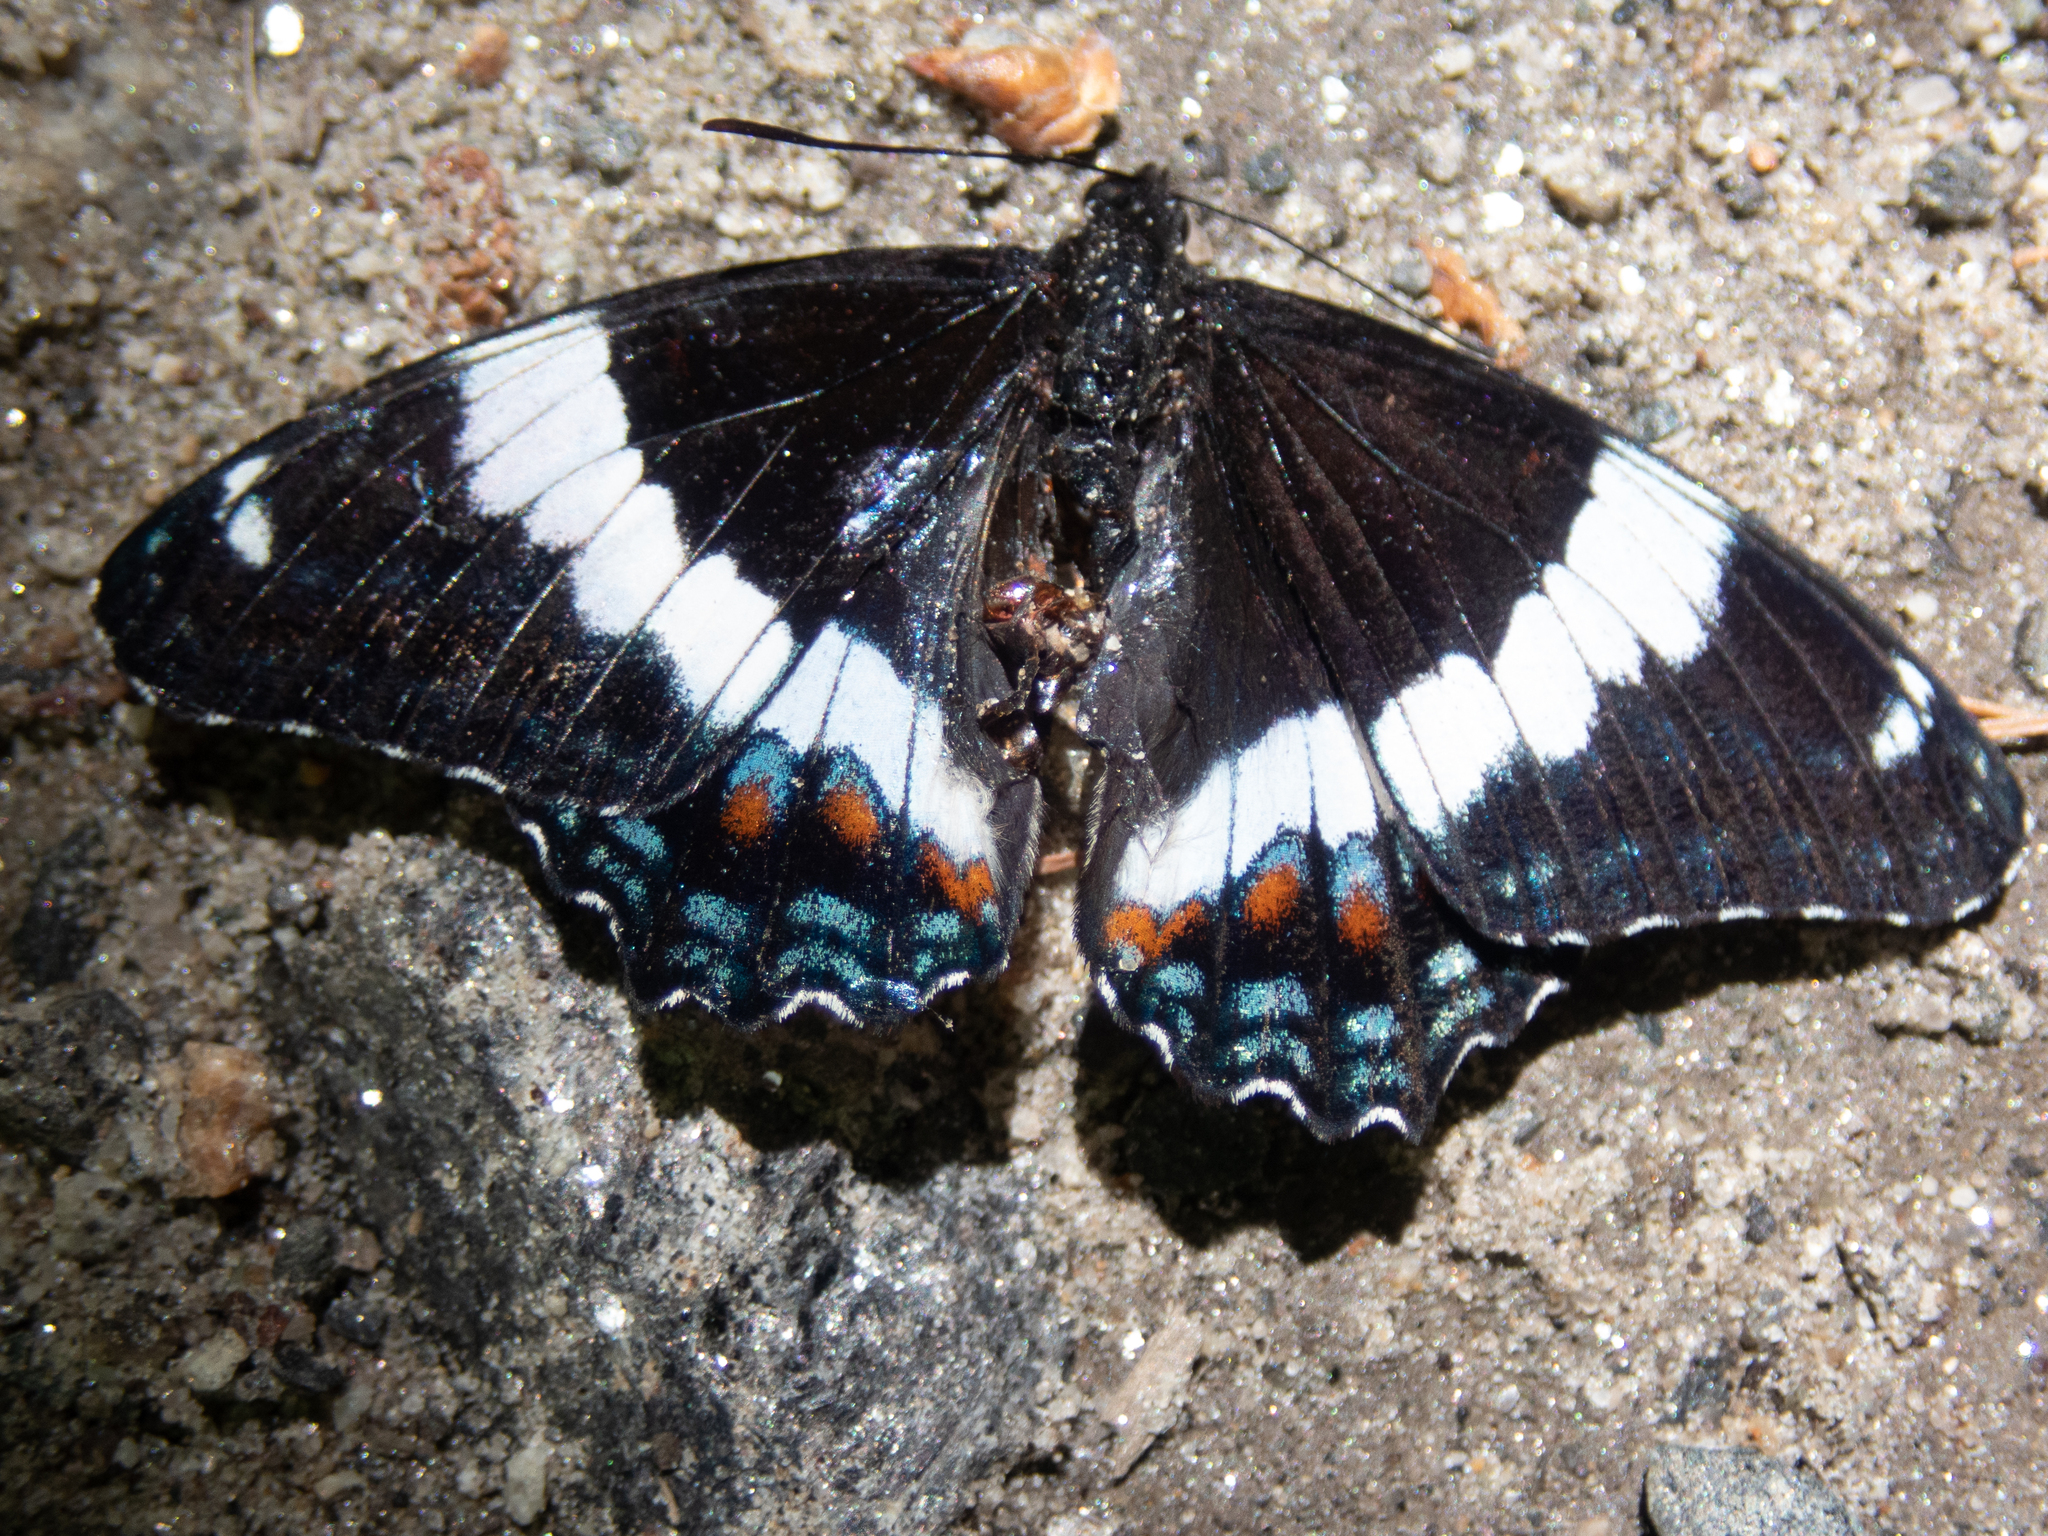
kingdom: Animalia
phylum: Arthropoda
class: Insecta
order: Lepidoptera
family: Nymphalidae
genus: Limenitis
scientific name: Limenitis arthemis
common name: Red-spotted admiral
